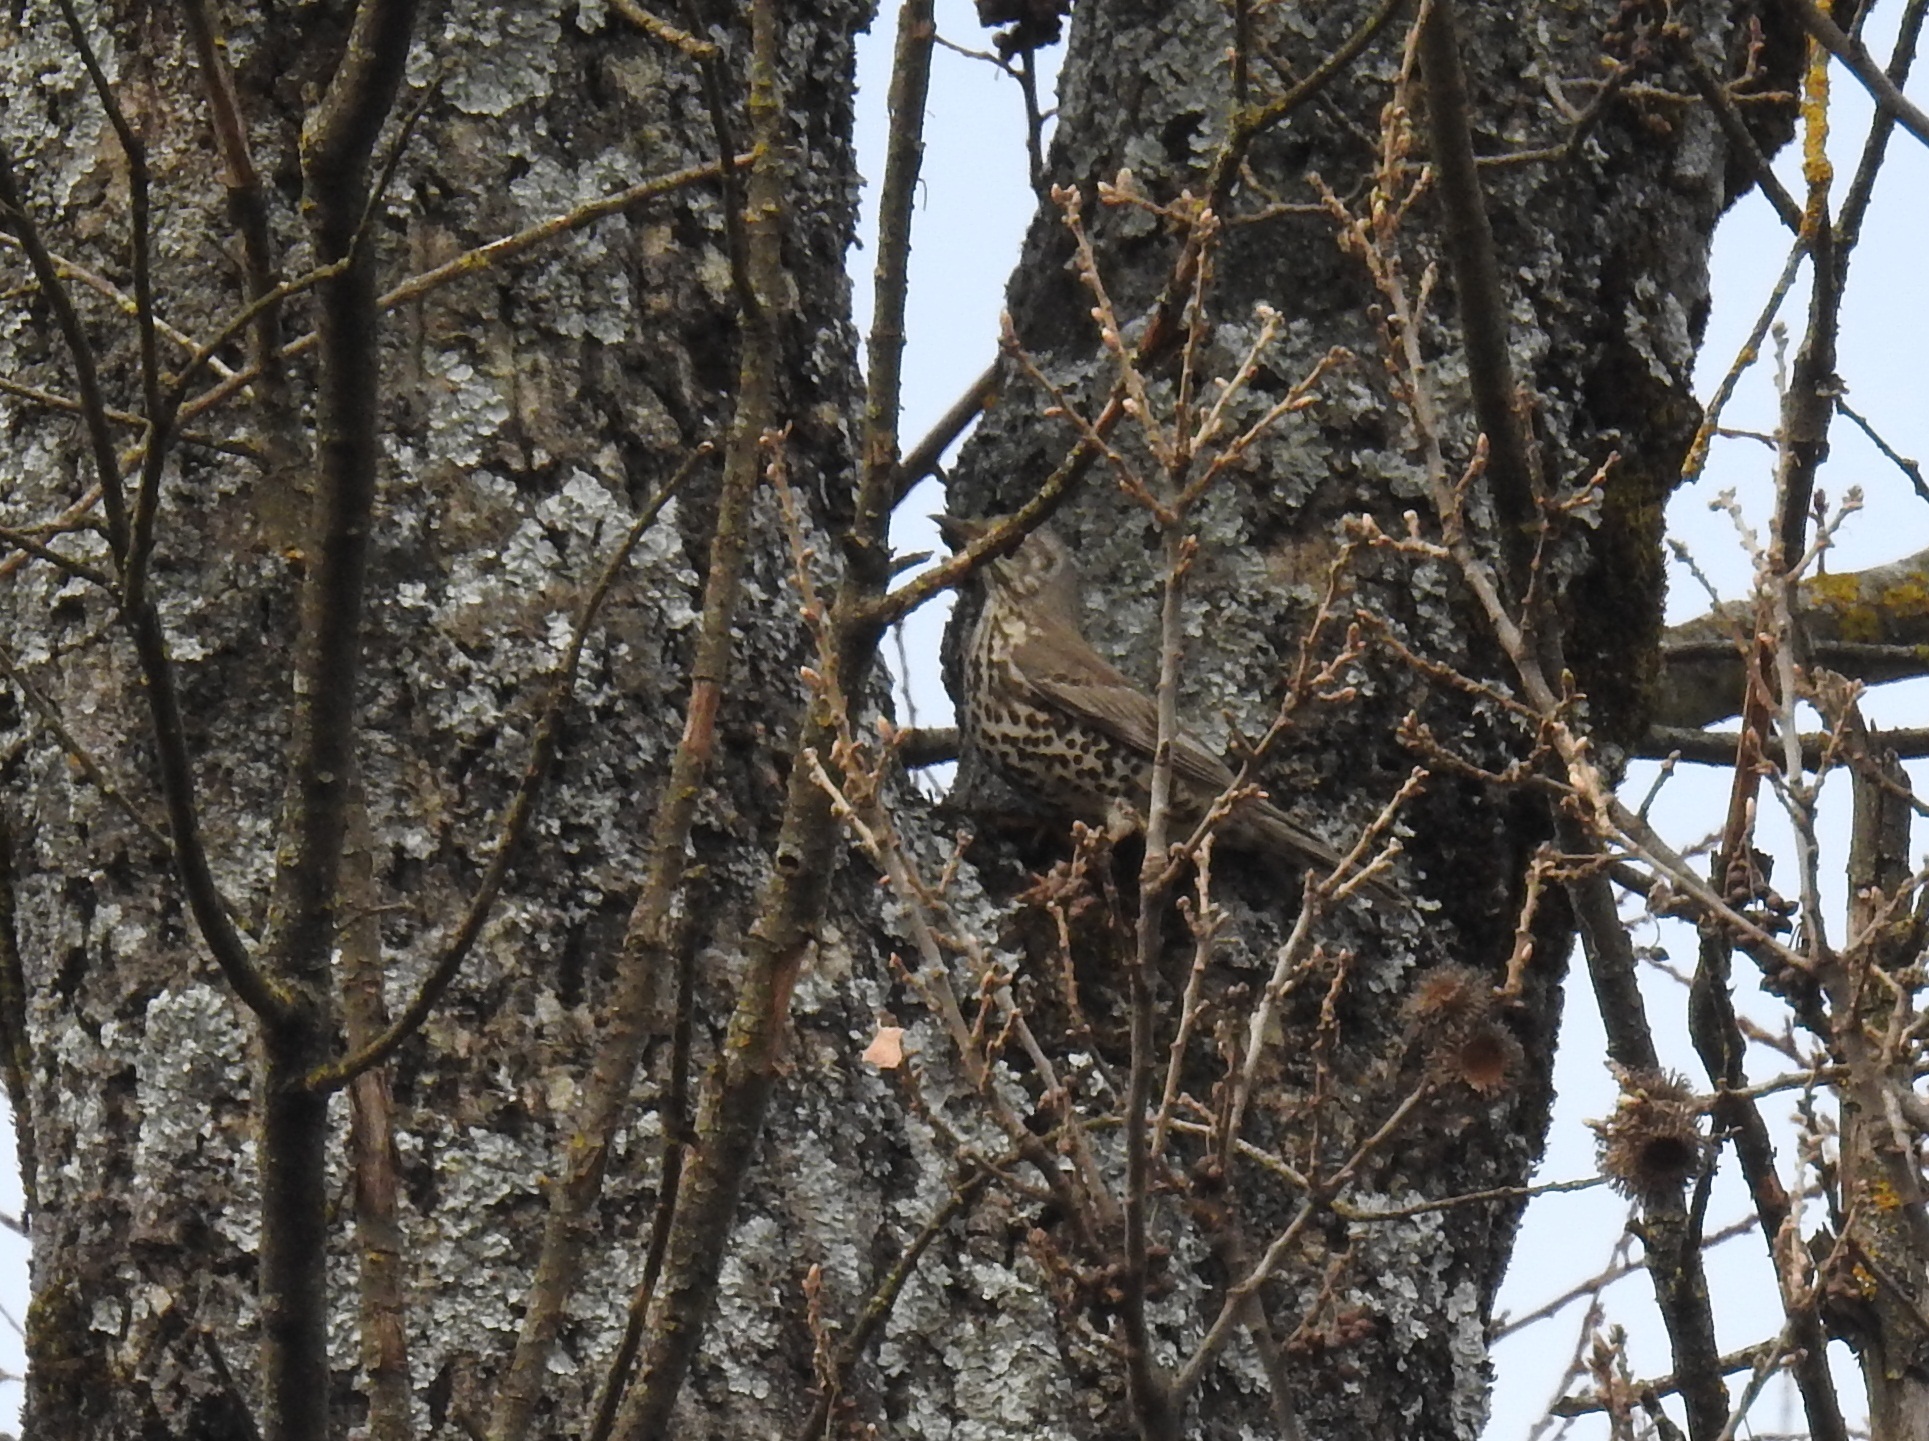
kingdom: Animalia
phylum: Chordata
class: Aves
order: Passeriformes
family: Turdidae
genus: Turdus
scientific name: Turdus viscivorus
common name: Mistle thrush
